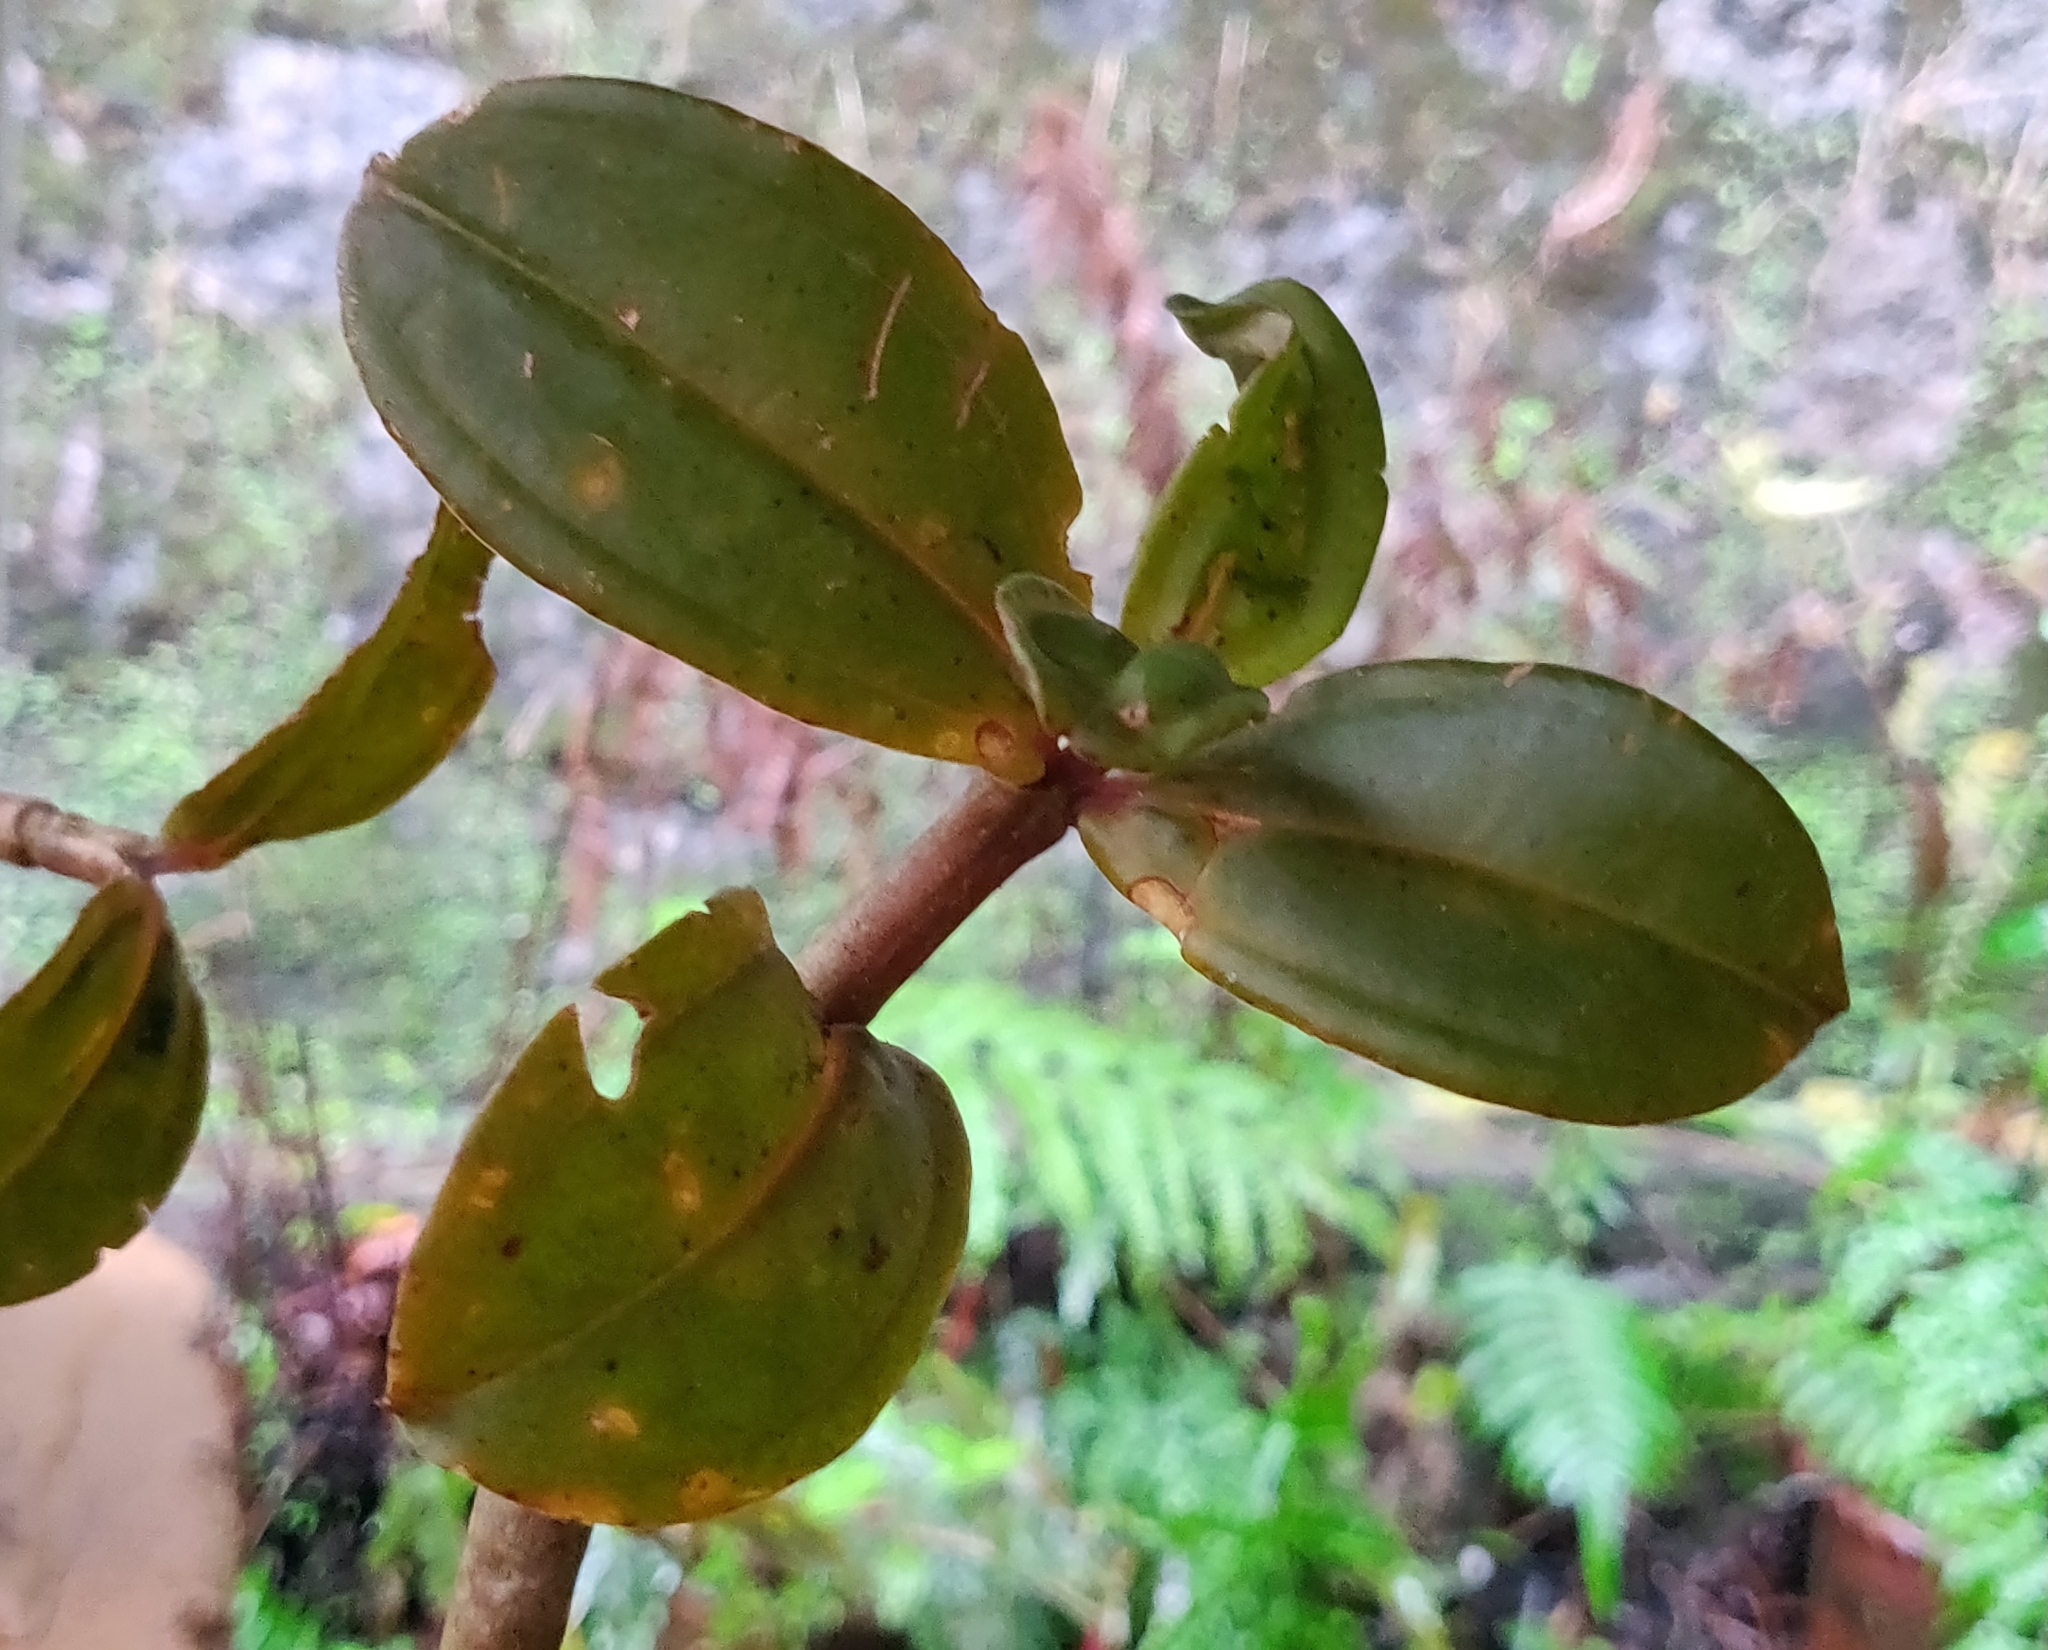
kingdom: Plantae
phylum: Tracheophyta
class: Magnoliopsida
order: Myrtales
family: Melastomataceae
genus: Medinilla
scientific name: Medinilla anamalaiana
